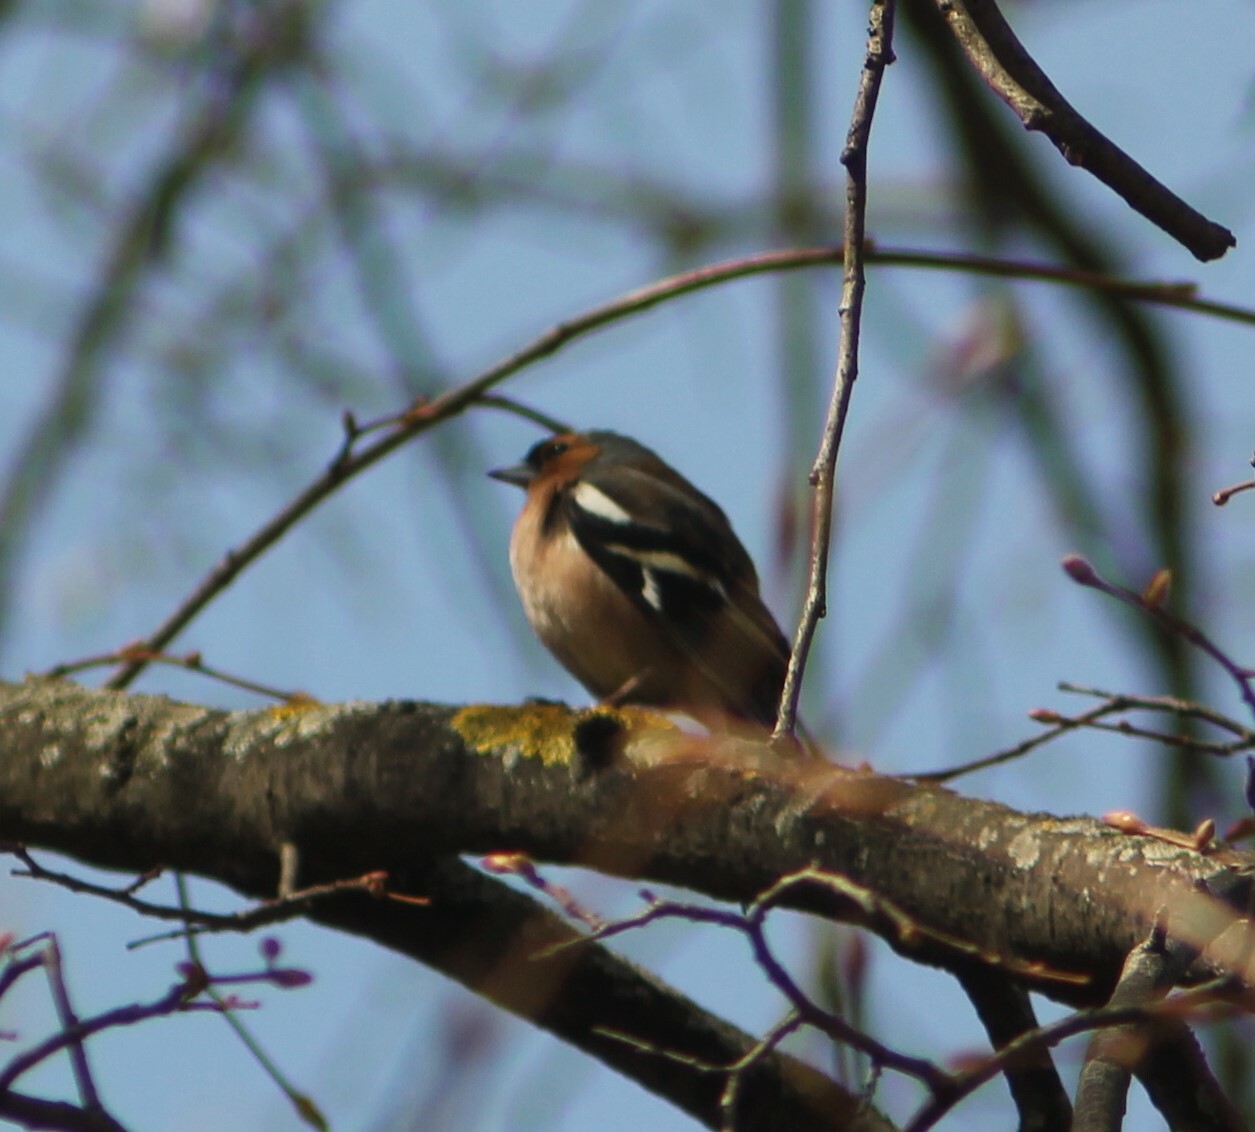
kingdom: Animalia
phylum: Chordata
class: Aves
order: Passeriformes
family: Fringillidae
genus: Fringilla
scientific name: Fringilla coelebs
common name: Common chaffinch
